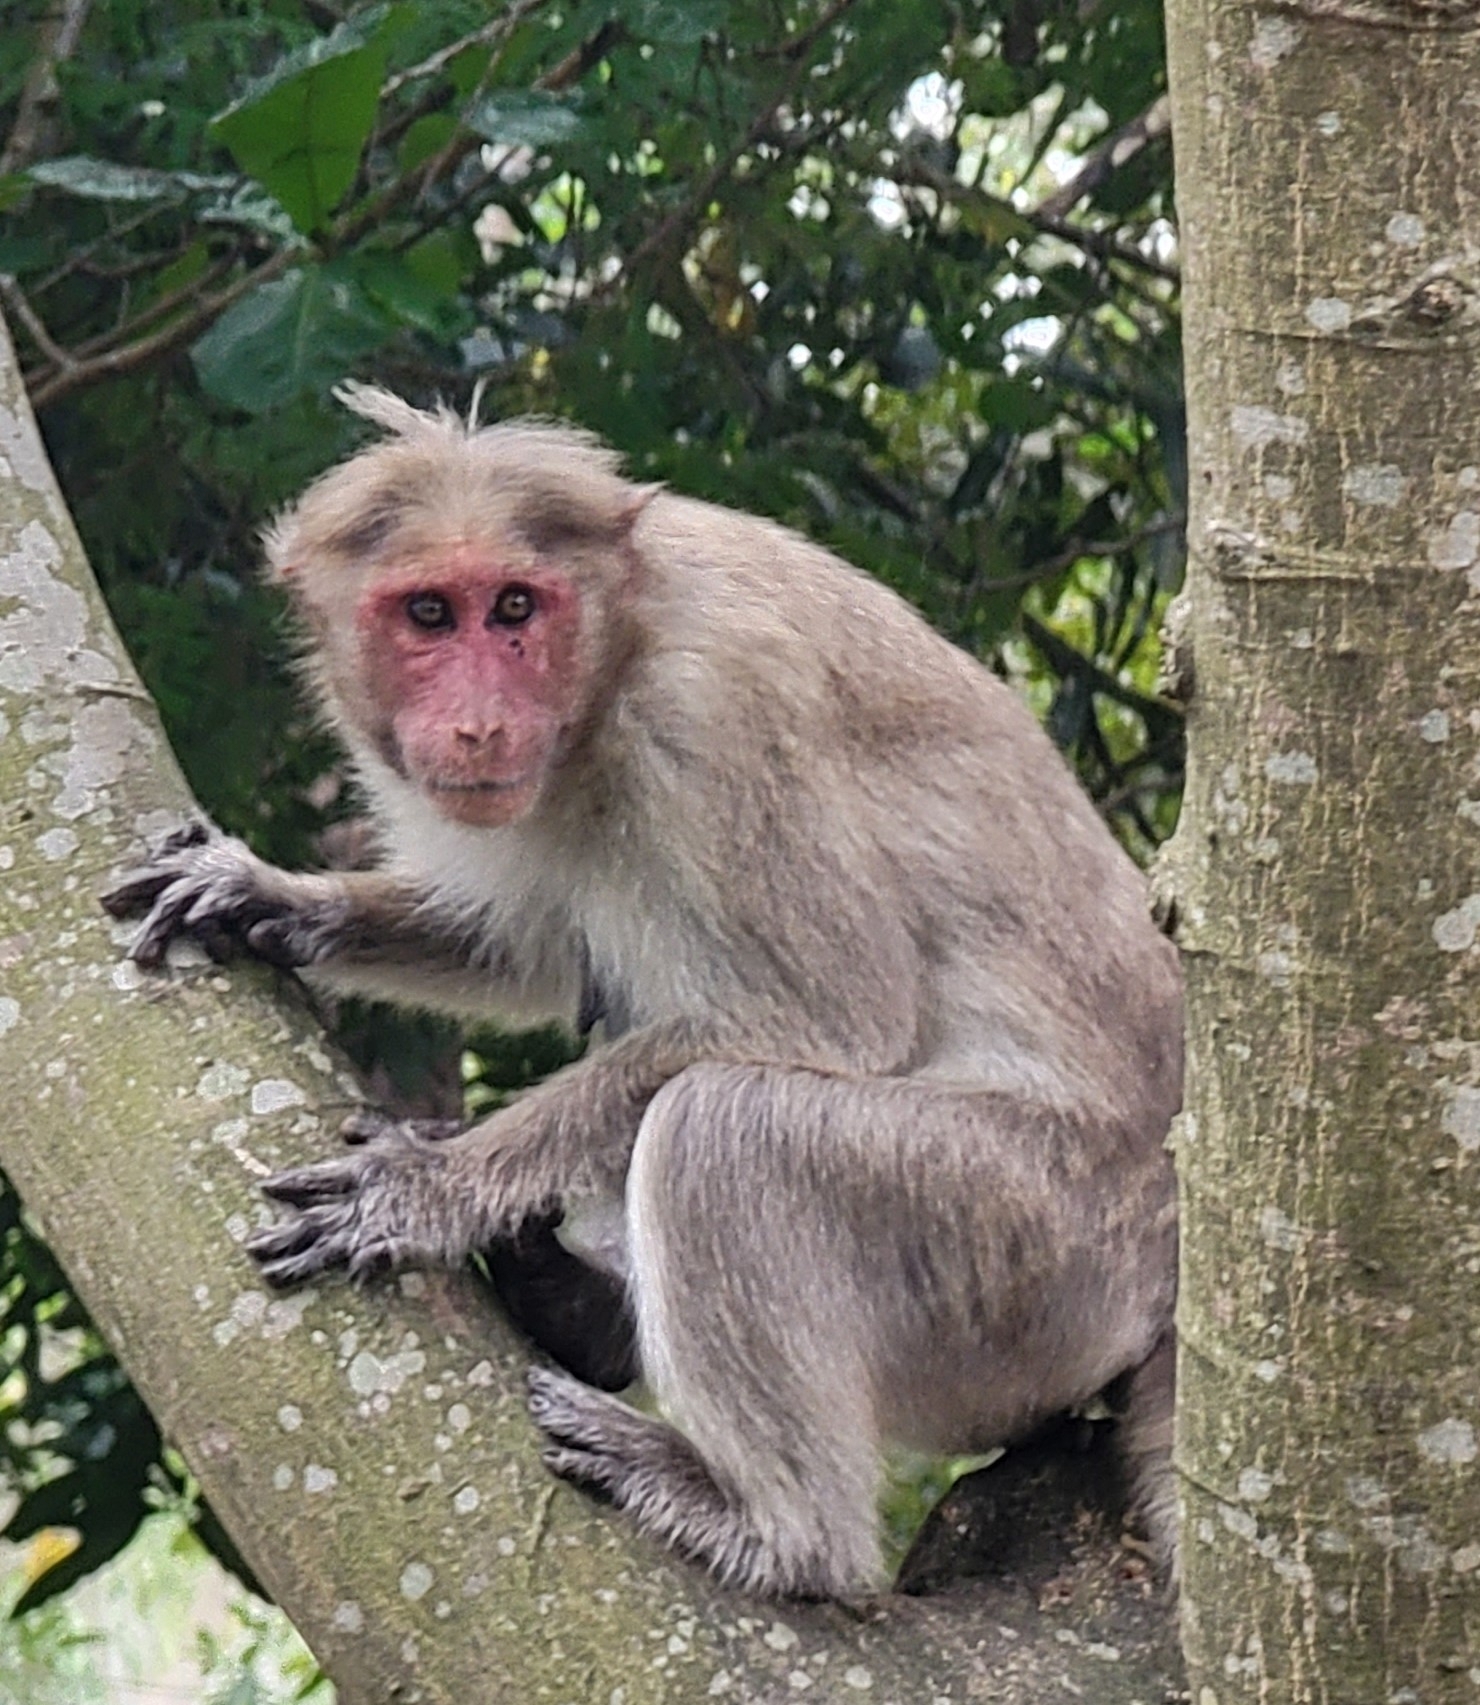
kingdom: Animalia
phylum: Chordata
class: Mammalia
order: Primates
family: Cercopithecidae
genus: Macaca
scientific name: Macaca radiata
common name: Bonnet macaque
